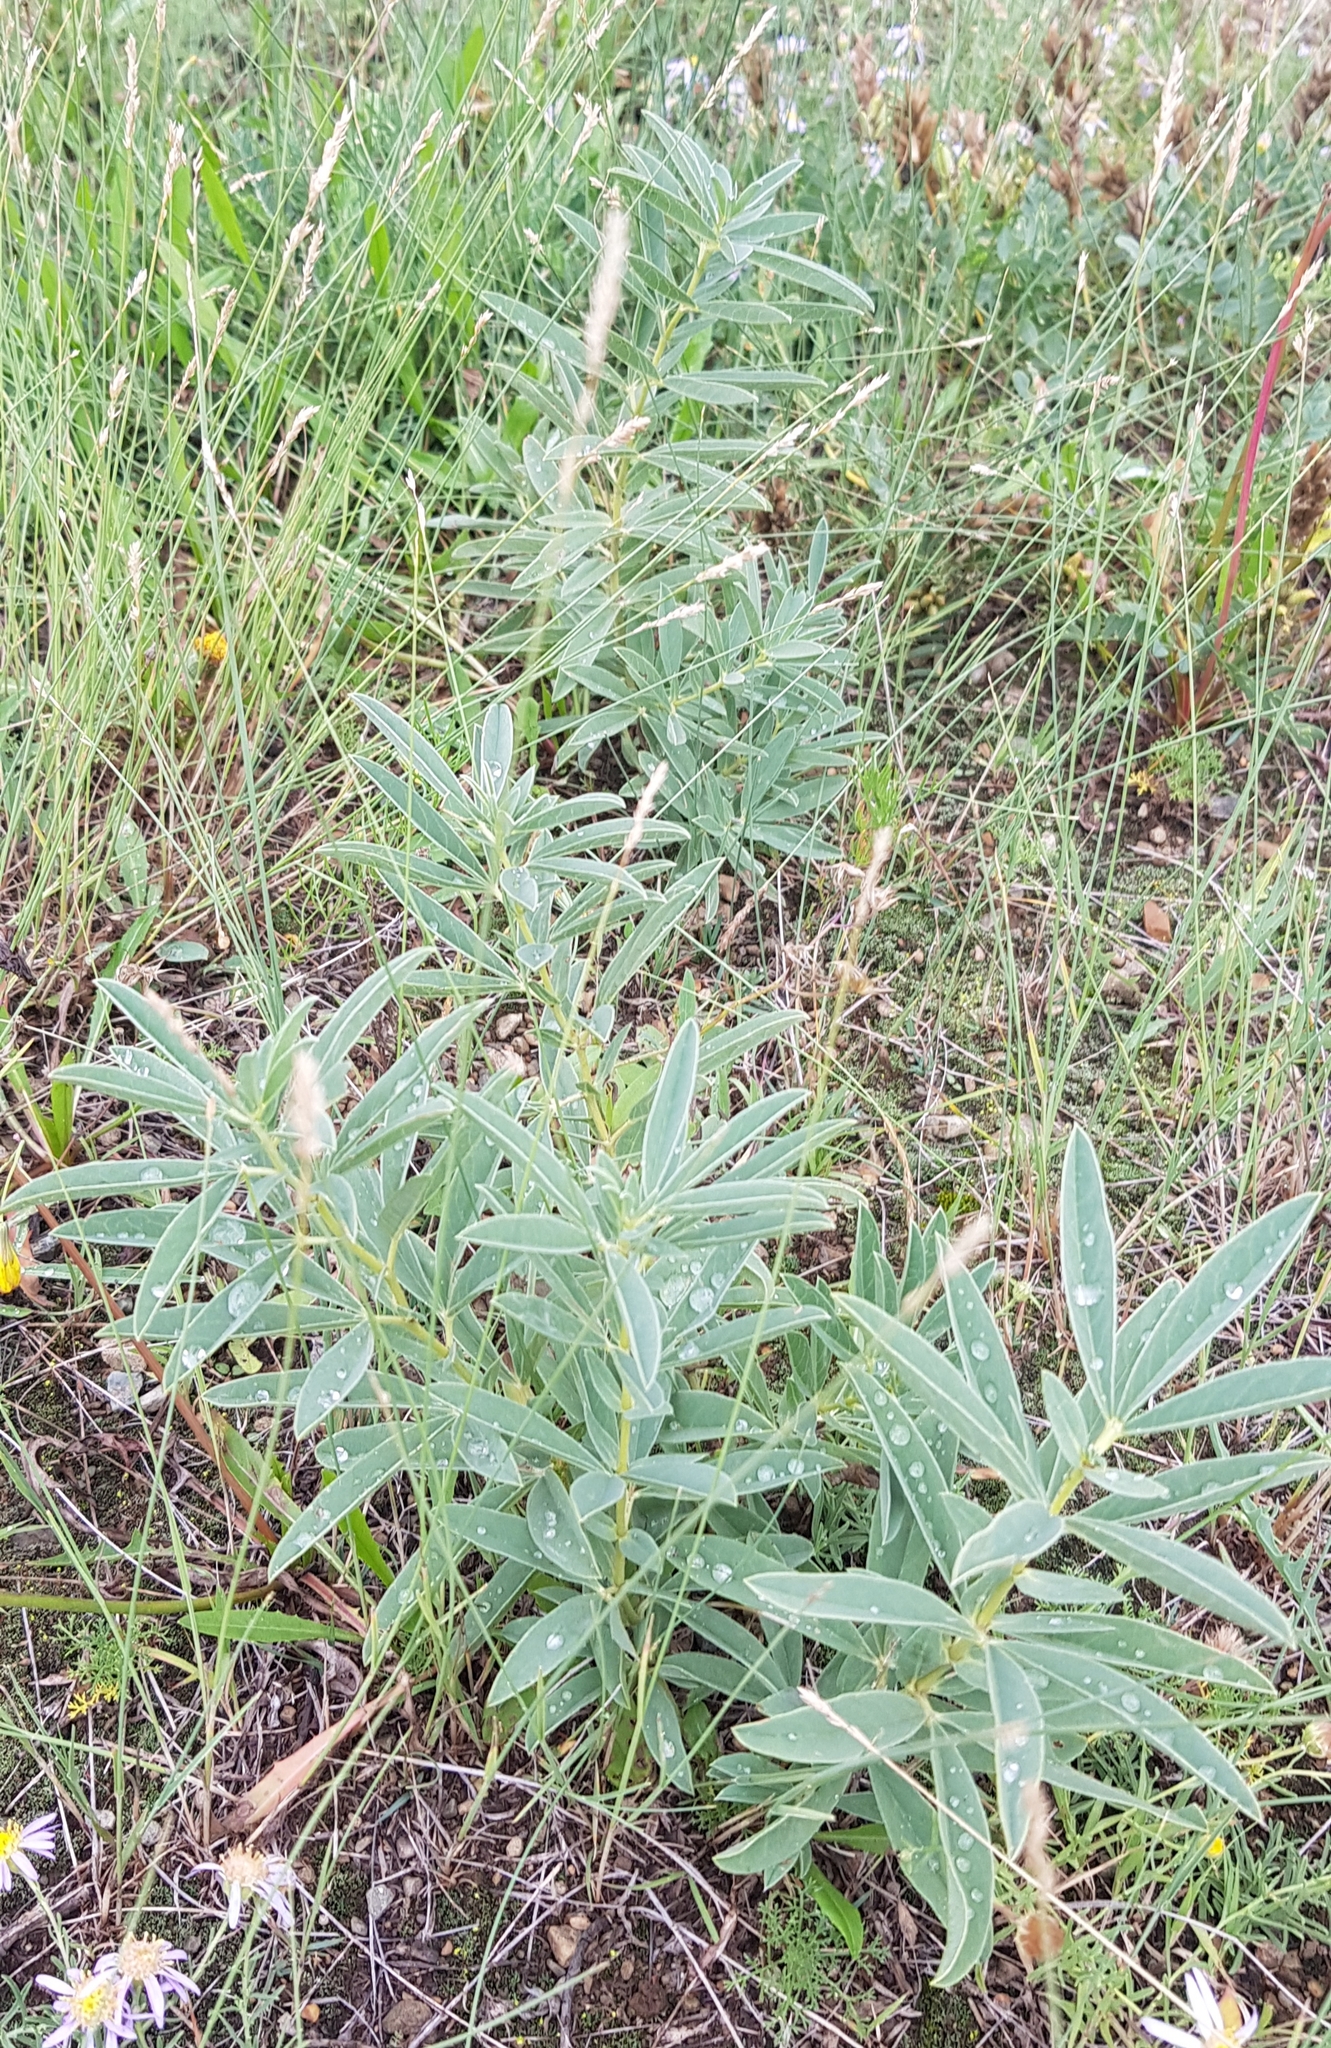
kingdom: Plantae
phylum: Tracheophyta
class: Magnoliopsida
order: Fabales
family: Fabaceae
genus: Thermopsis
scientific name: Thermopsis lanceolata
